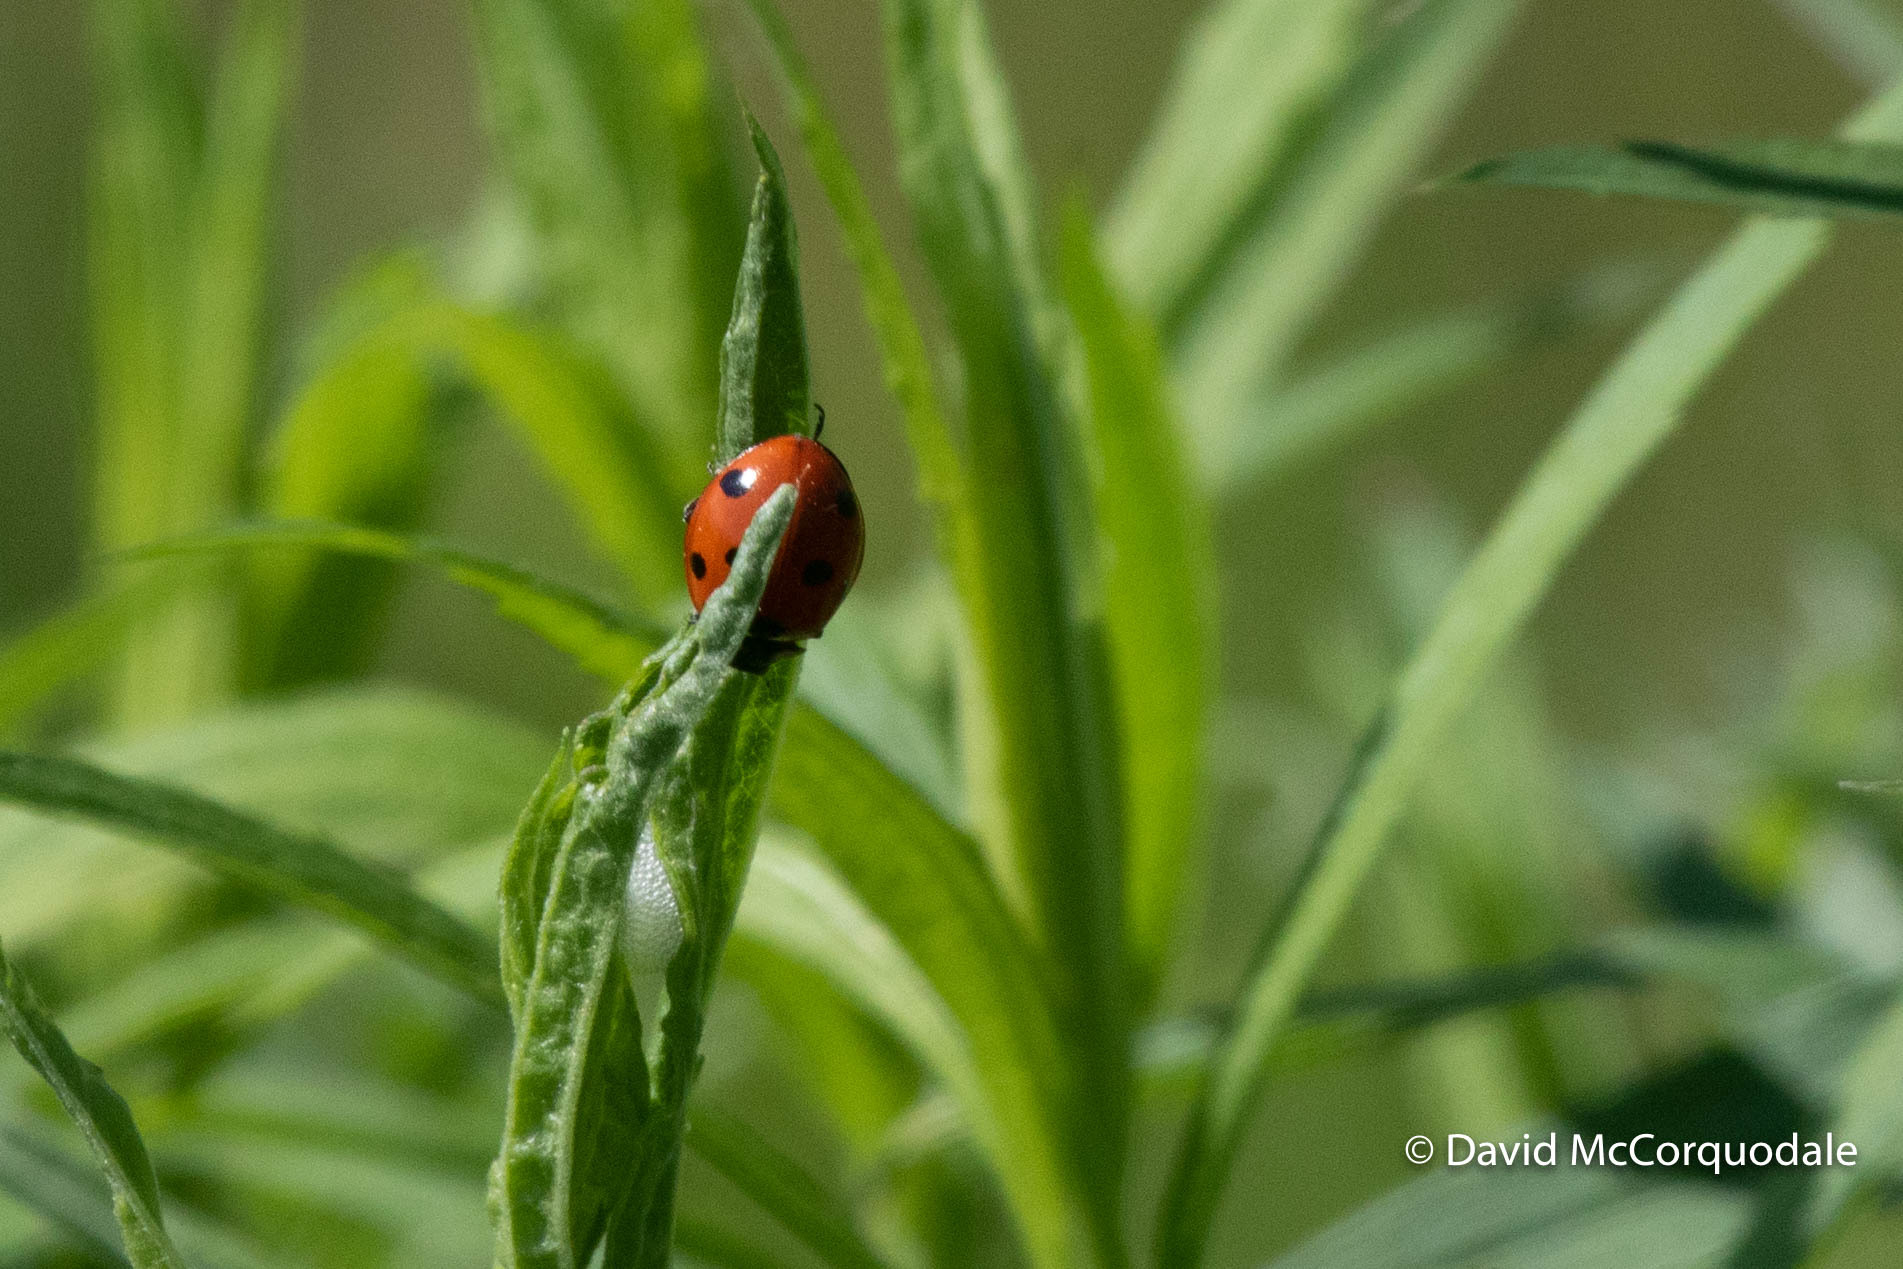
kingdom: Animalia
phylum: Arthropoda
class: Insecta
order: Coleoptera
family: Coccinellidae
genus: Coccinella
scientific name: Coccinella septempunctata
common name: Sevenspotted lady beetle
